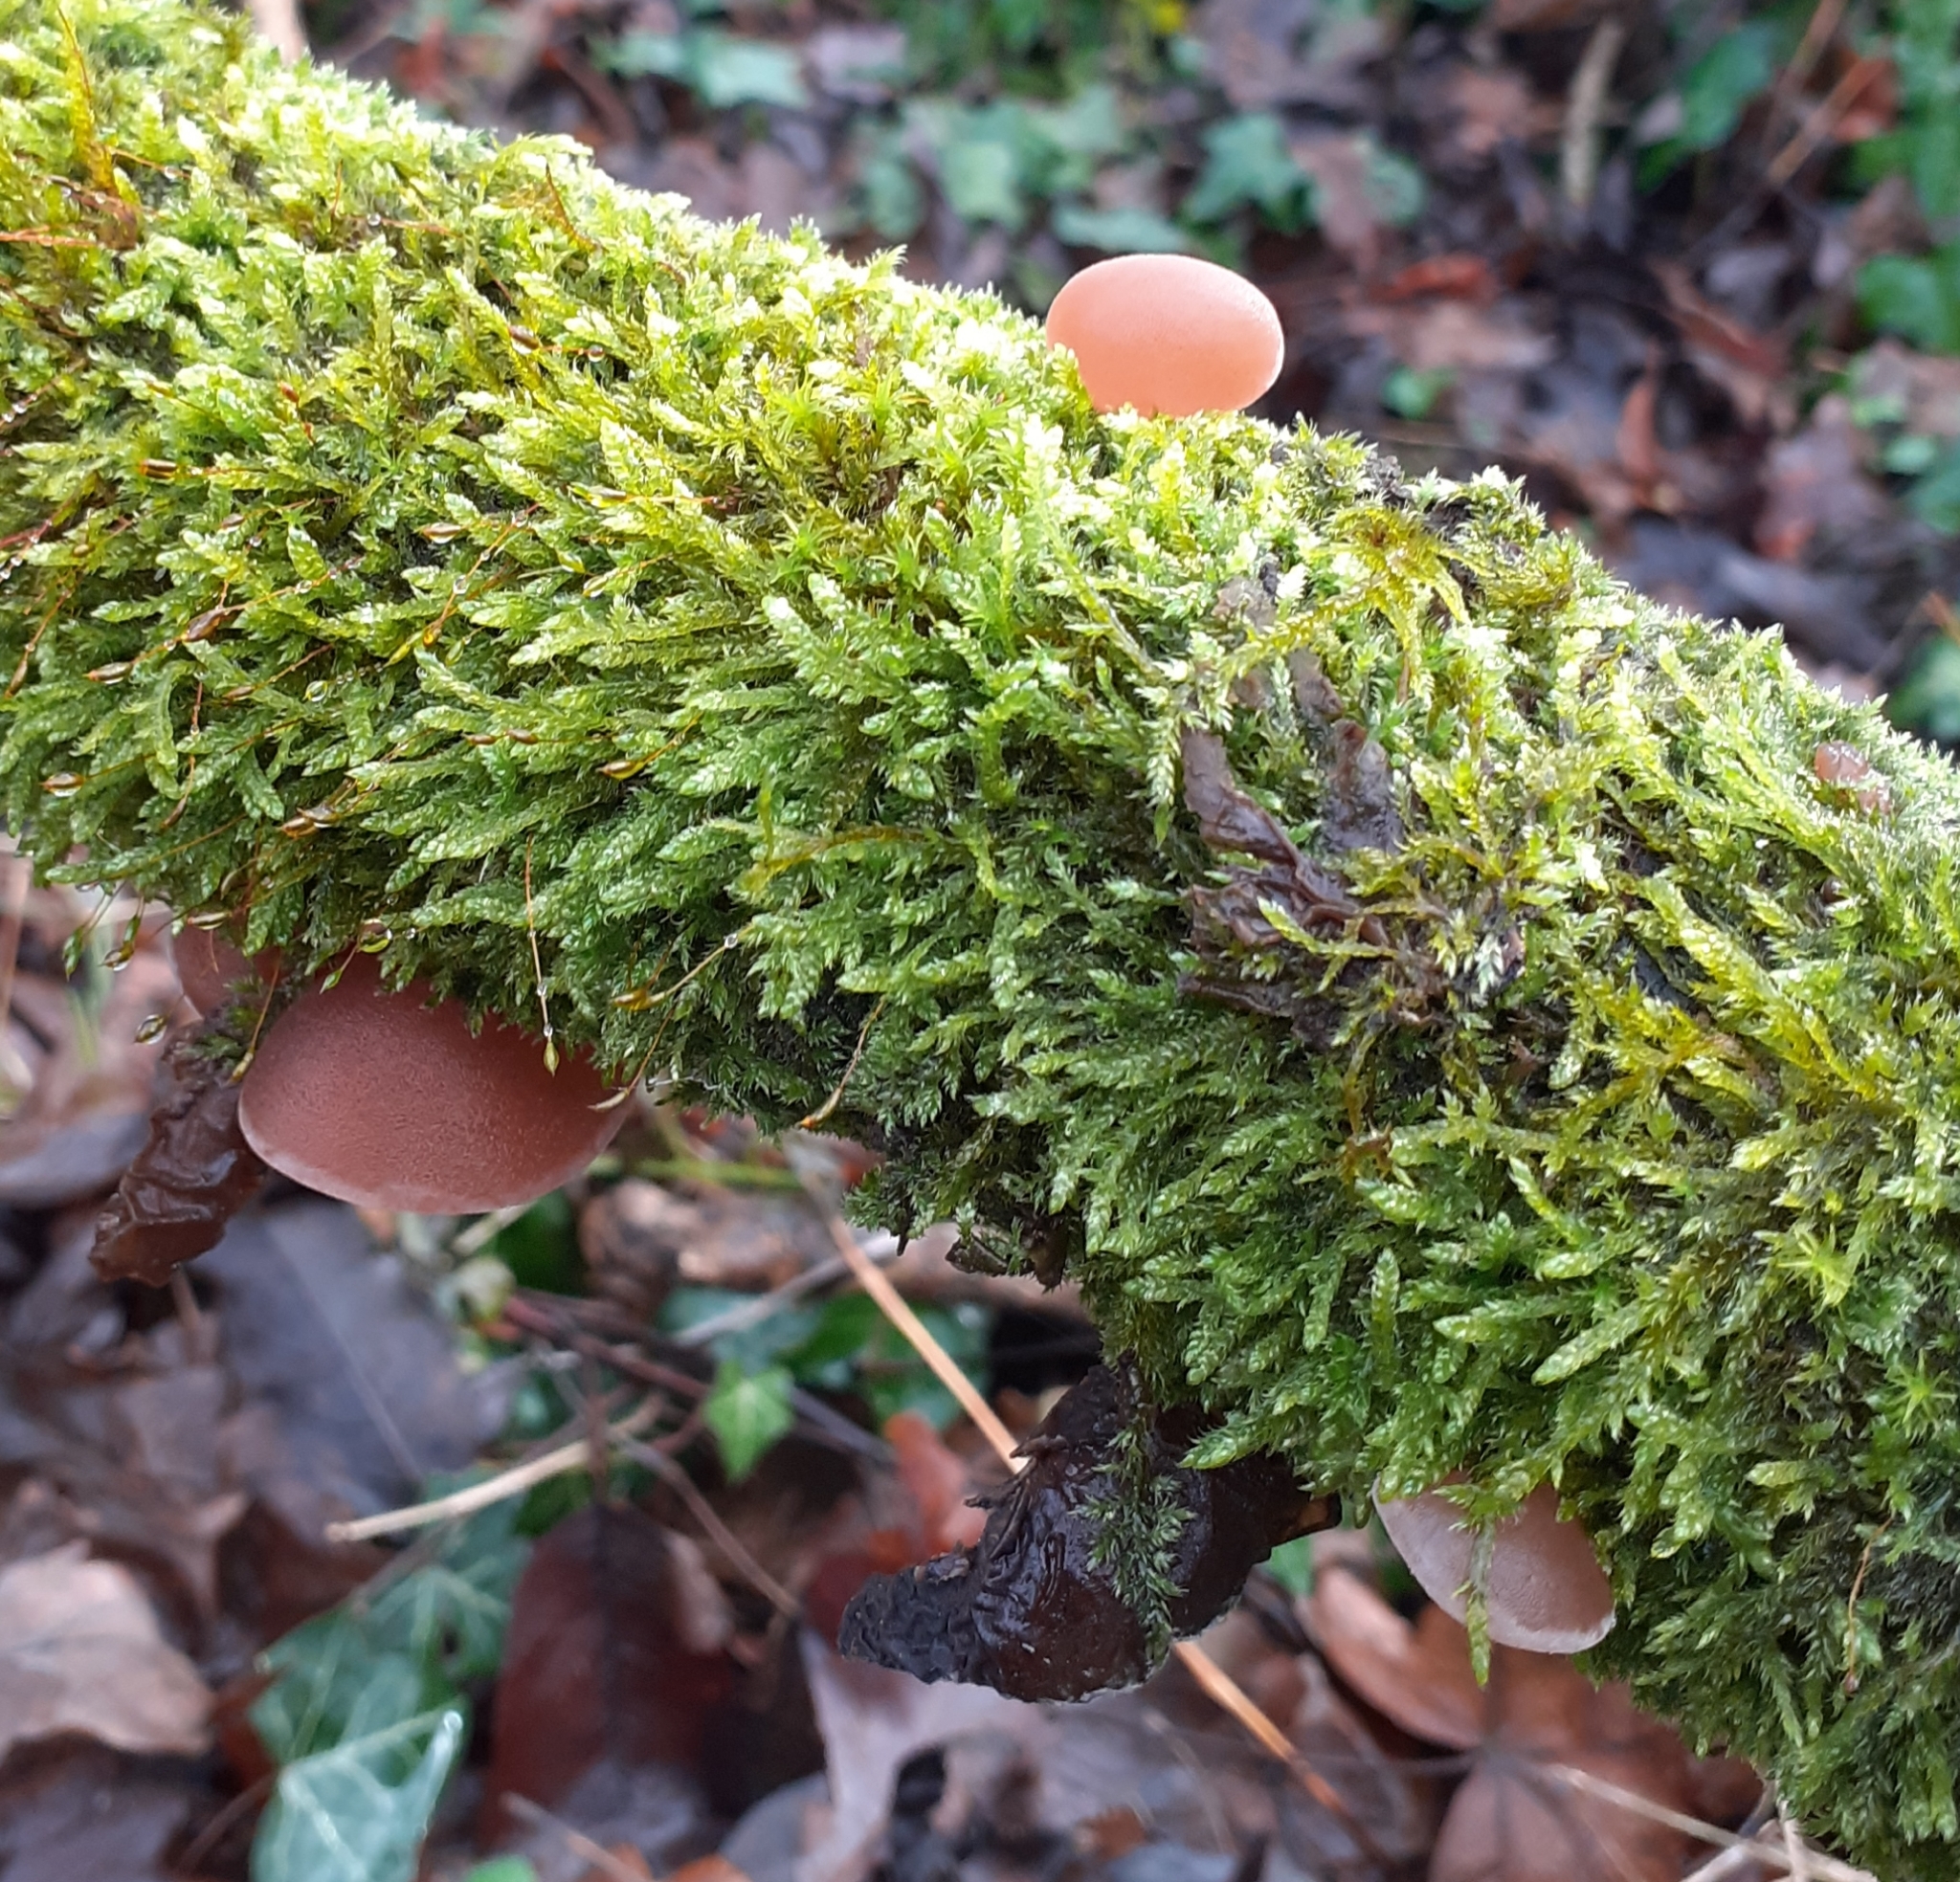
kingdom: Fungi
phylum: Basidiomycota
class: Agaricomycetes
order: Auriculariales
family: Auriculariaceae
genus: Auricularia
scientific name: Auricularia auricula-judae
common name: Jelly ear
